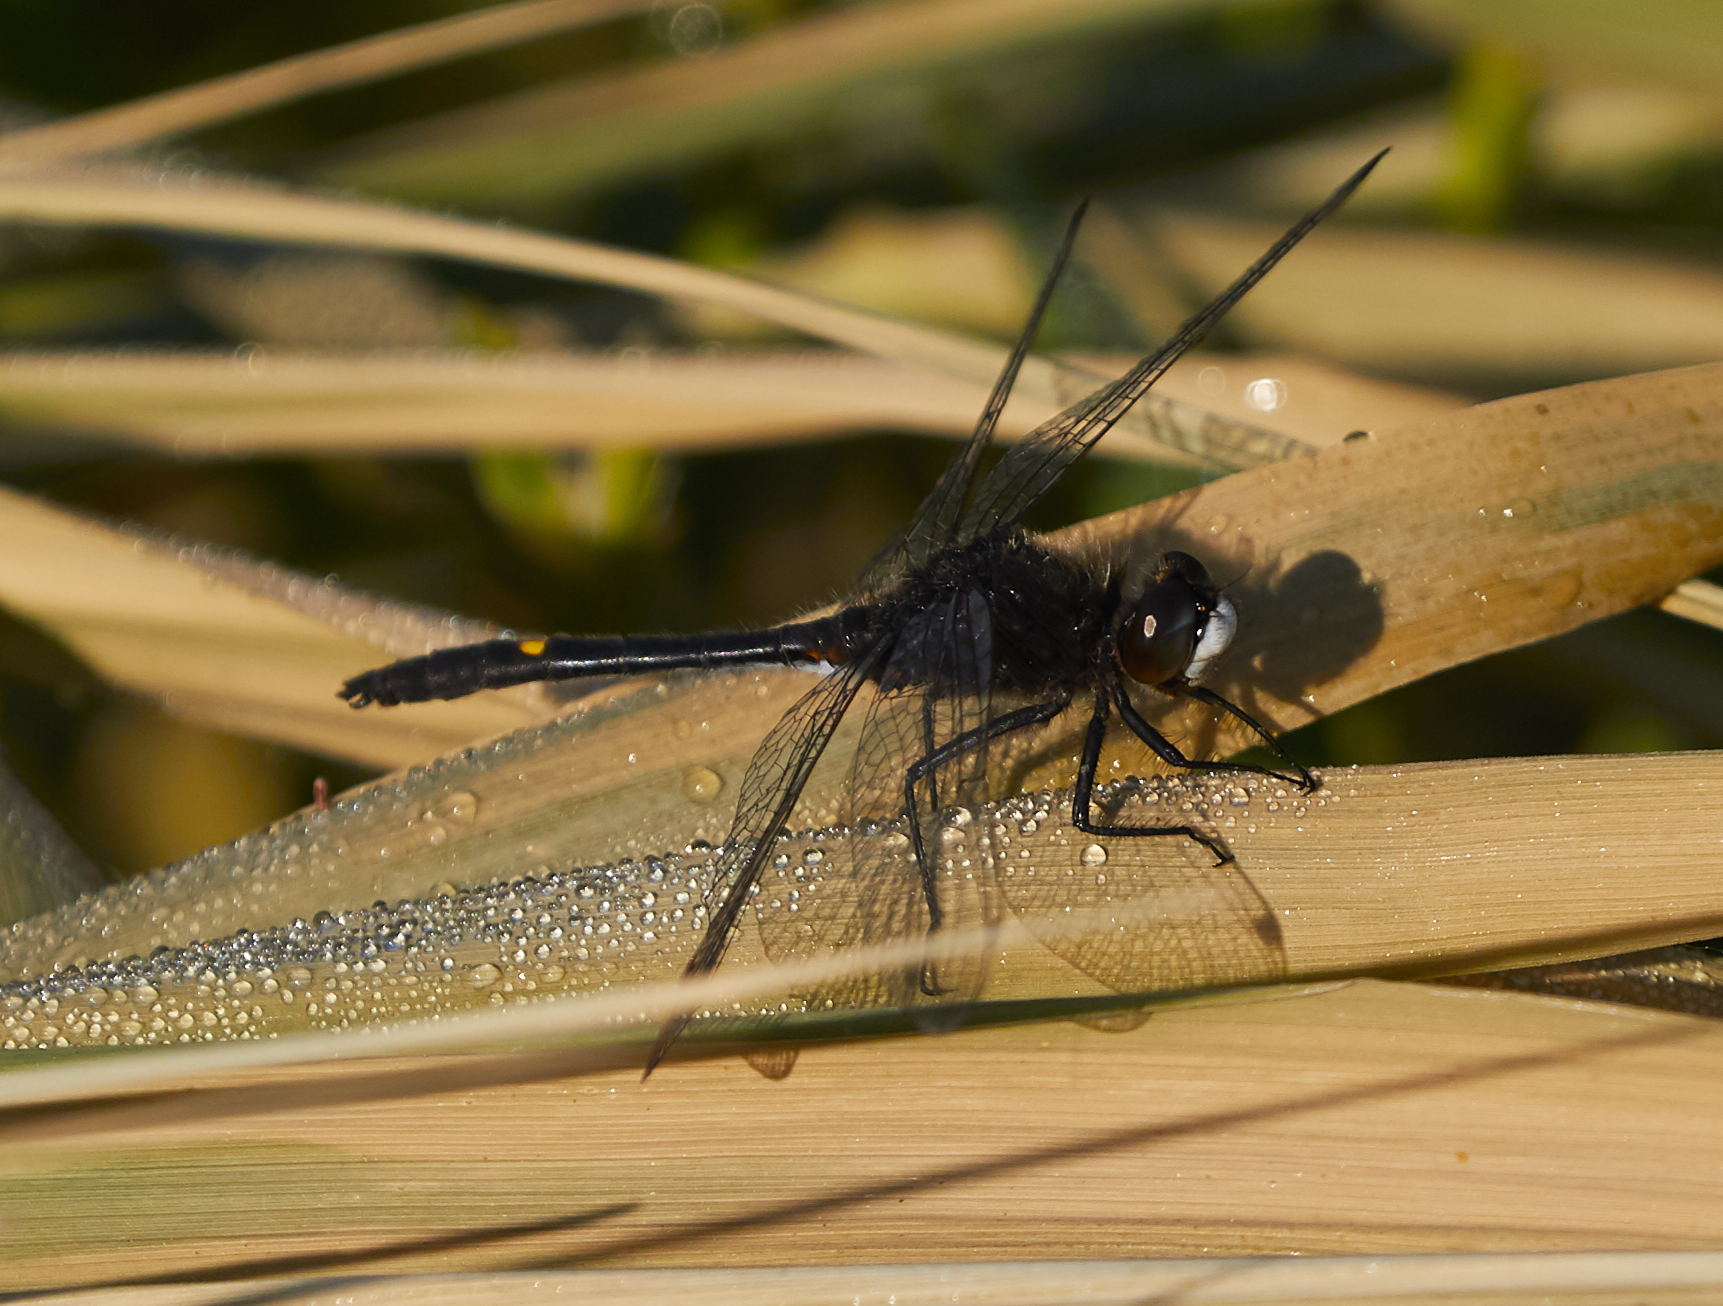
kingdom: Animalia
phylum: Arthropoda
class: Insecta
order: Odonata
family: Libellulidae
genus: Leucorrhinia
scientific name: Leucorrhinia intacta
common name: Dot-tailed whiteface
